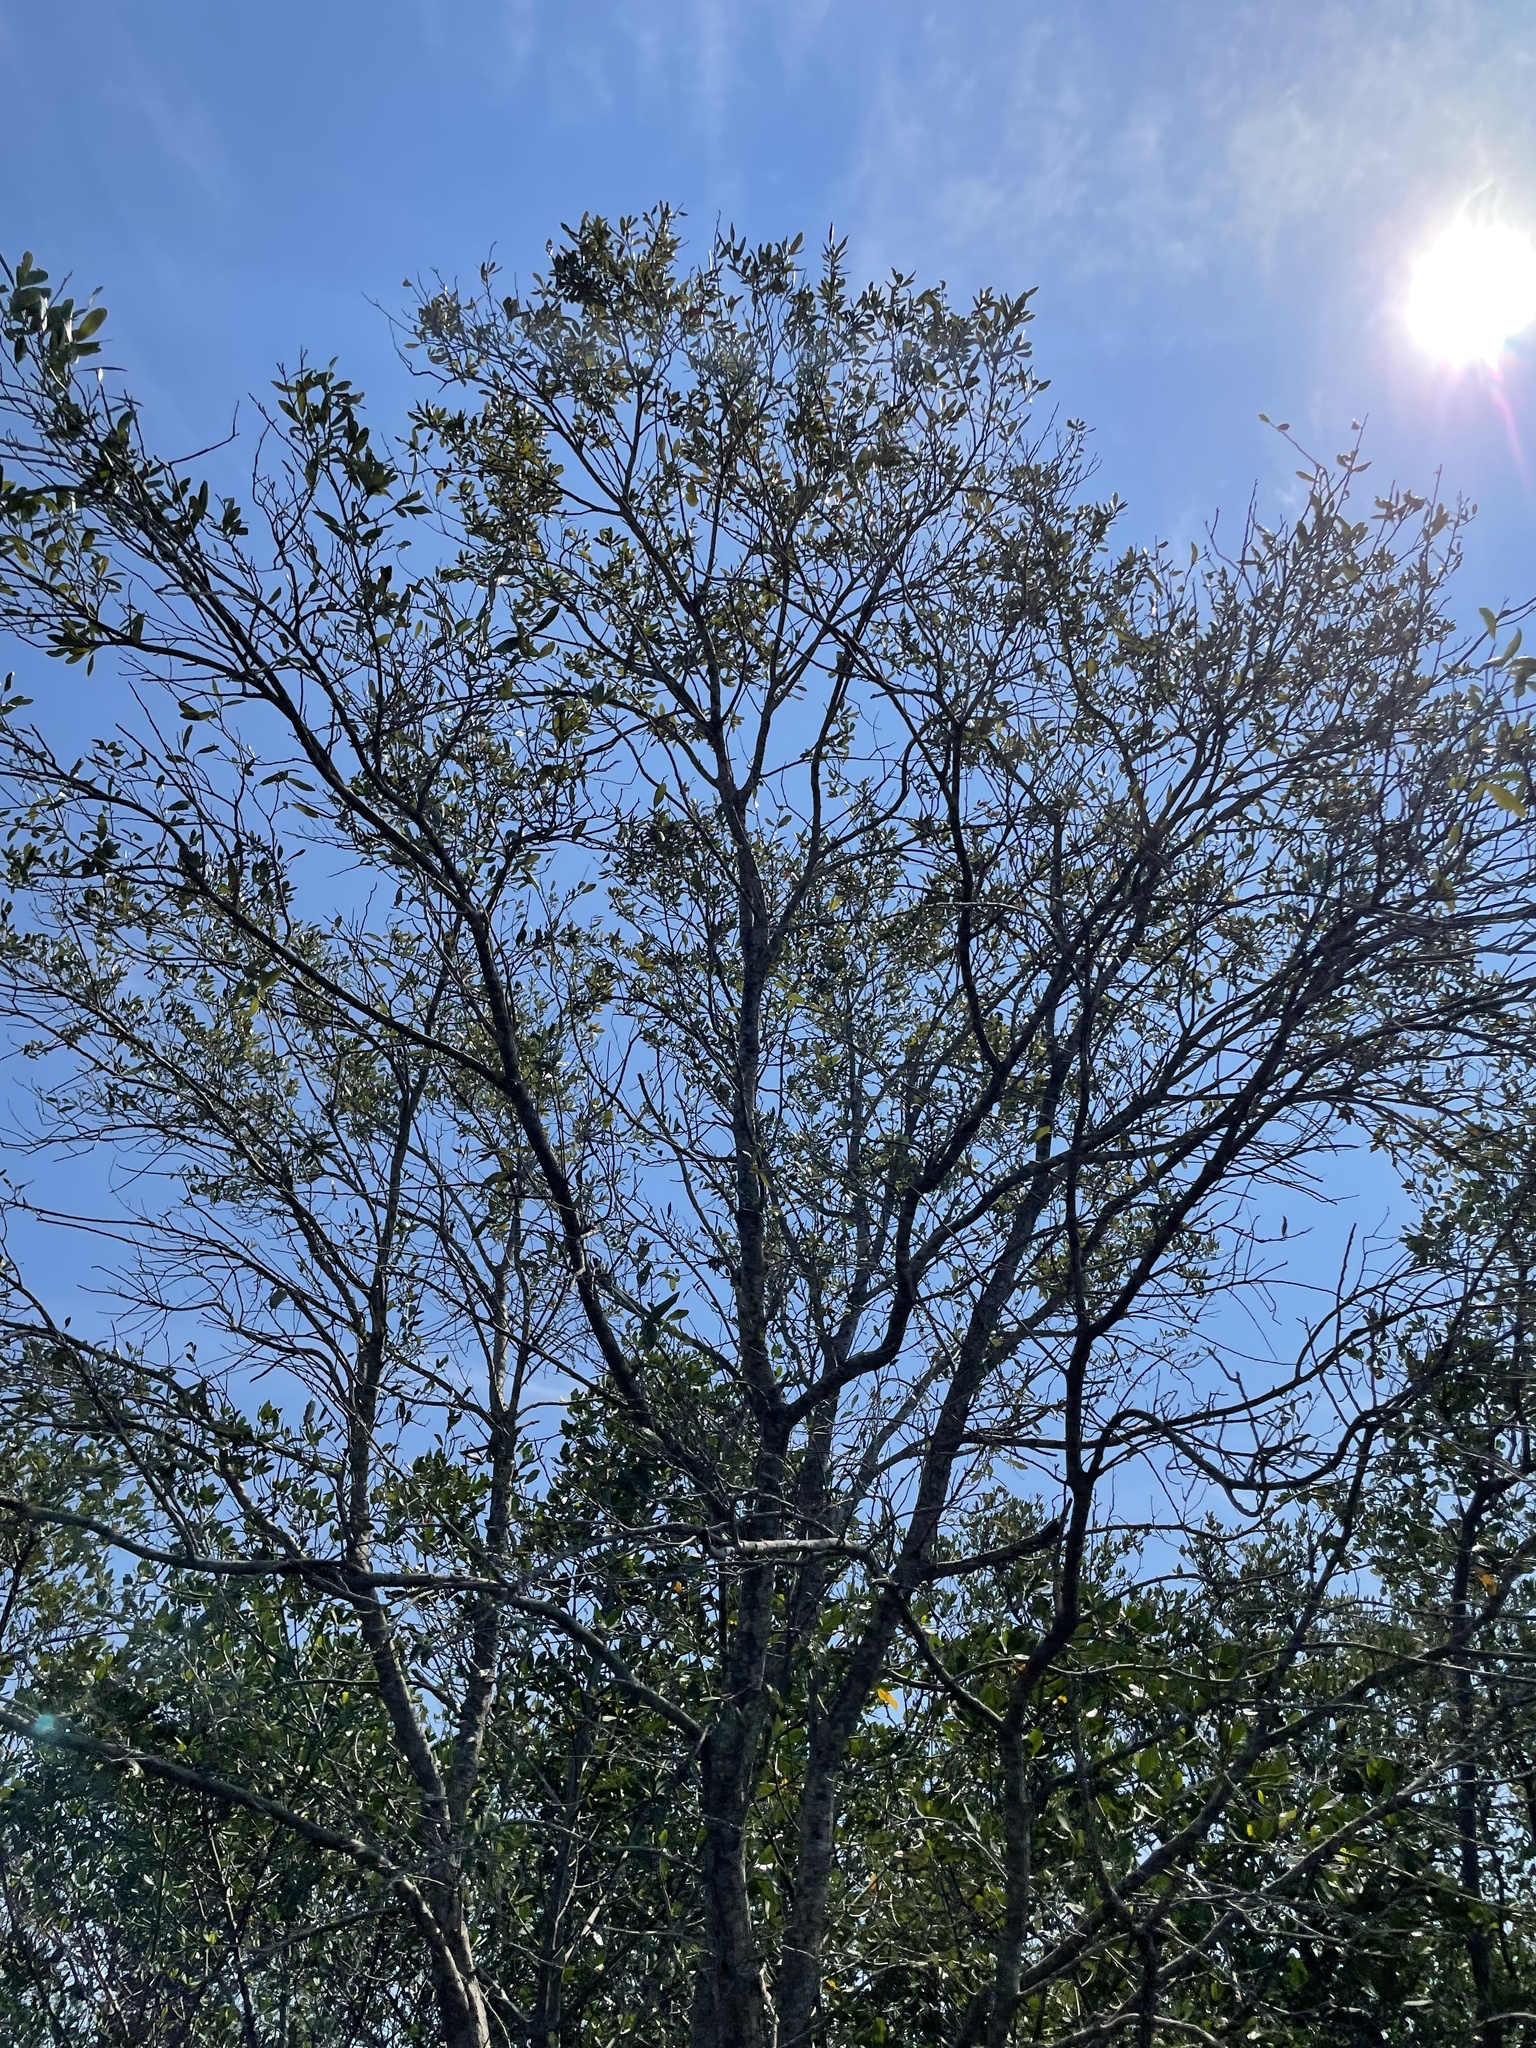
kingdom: Plantae
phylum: Tracheophyta
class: Magnoliopsida
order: Myrtales
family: Combretaceae
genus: Conocarpus
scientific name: Conocarpus erectus
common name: Button mangrove
